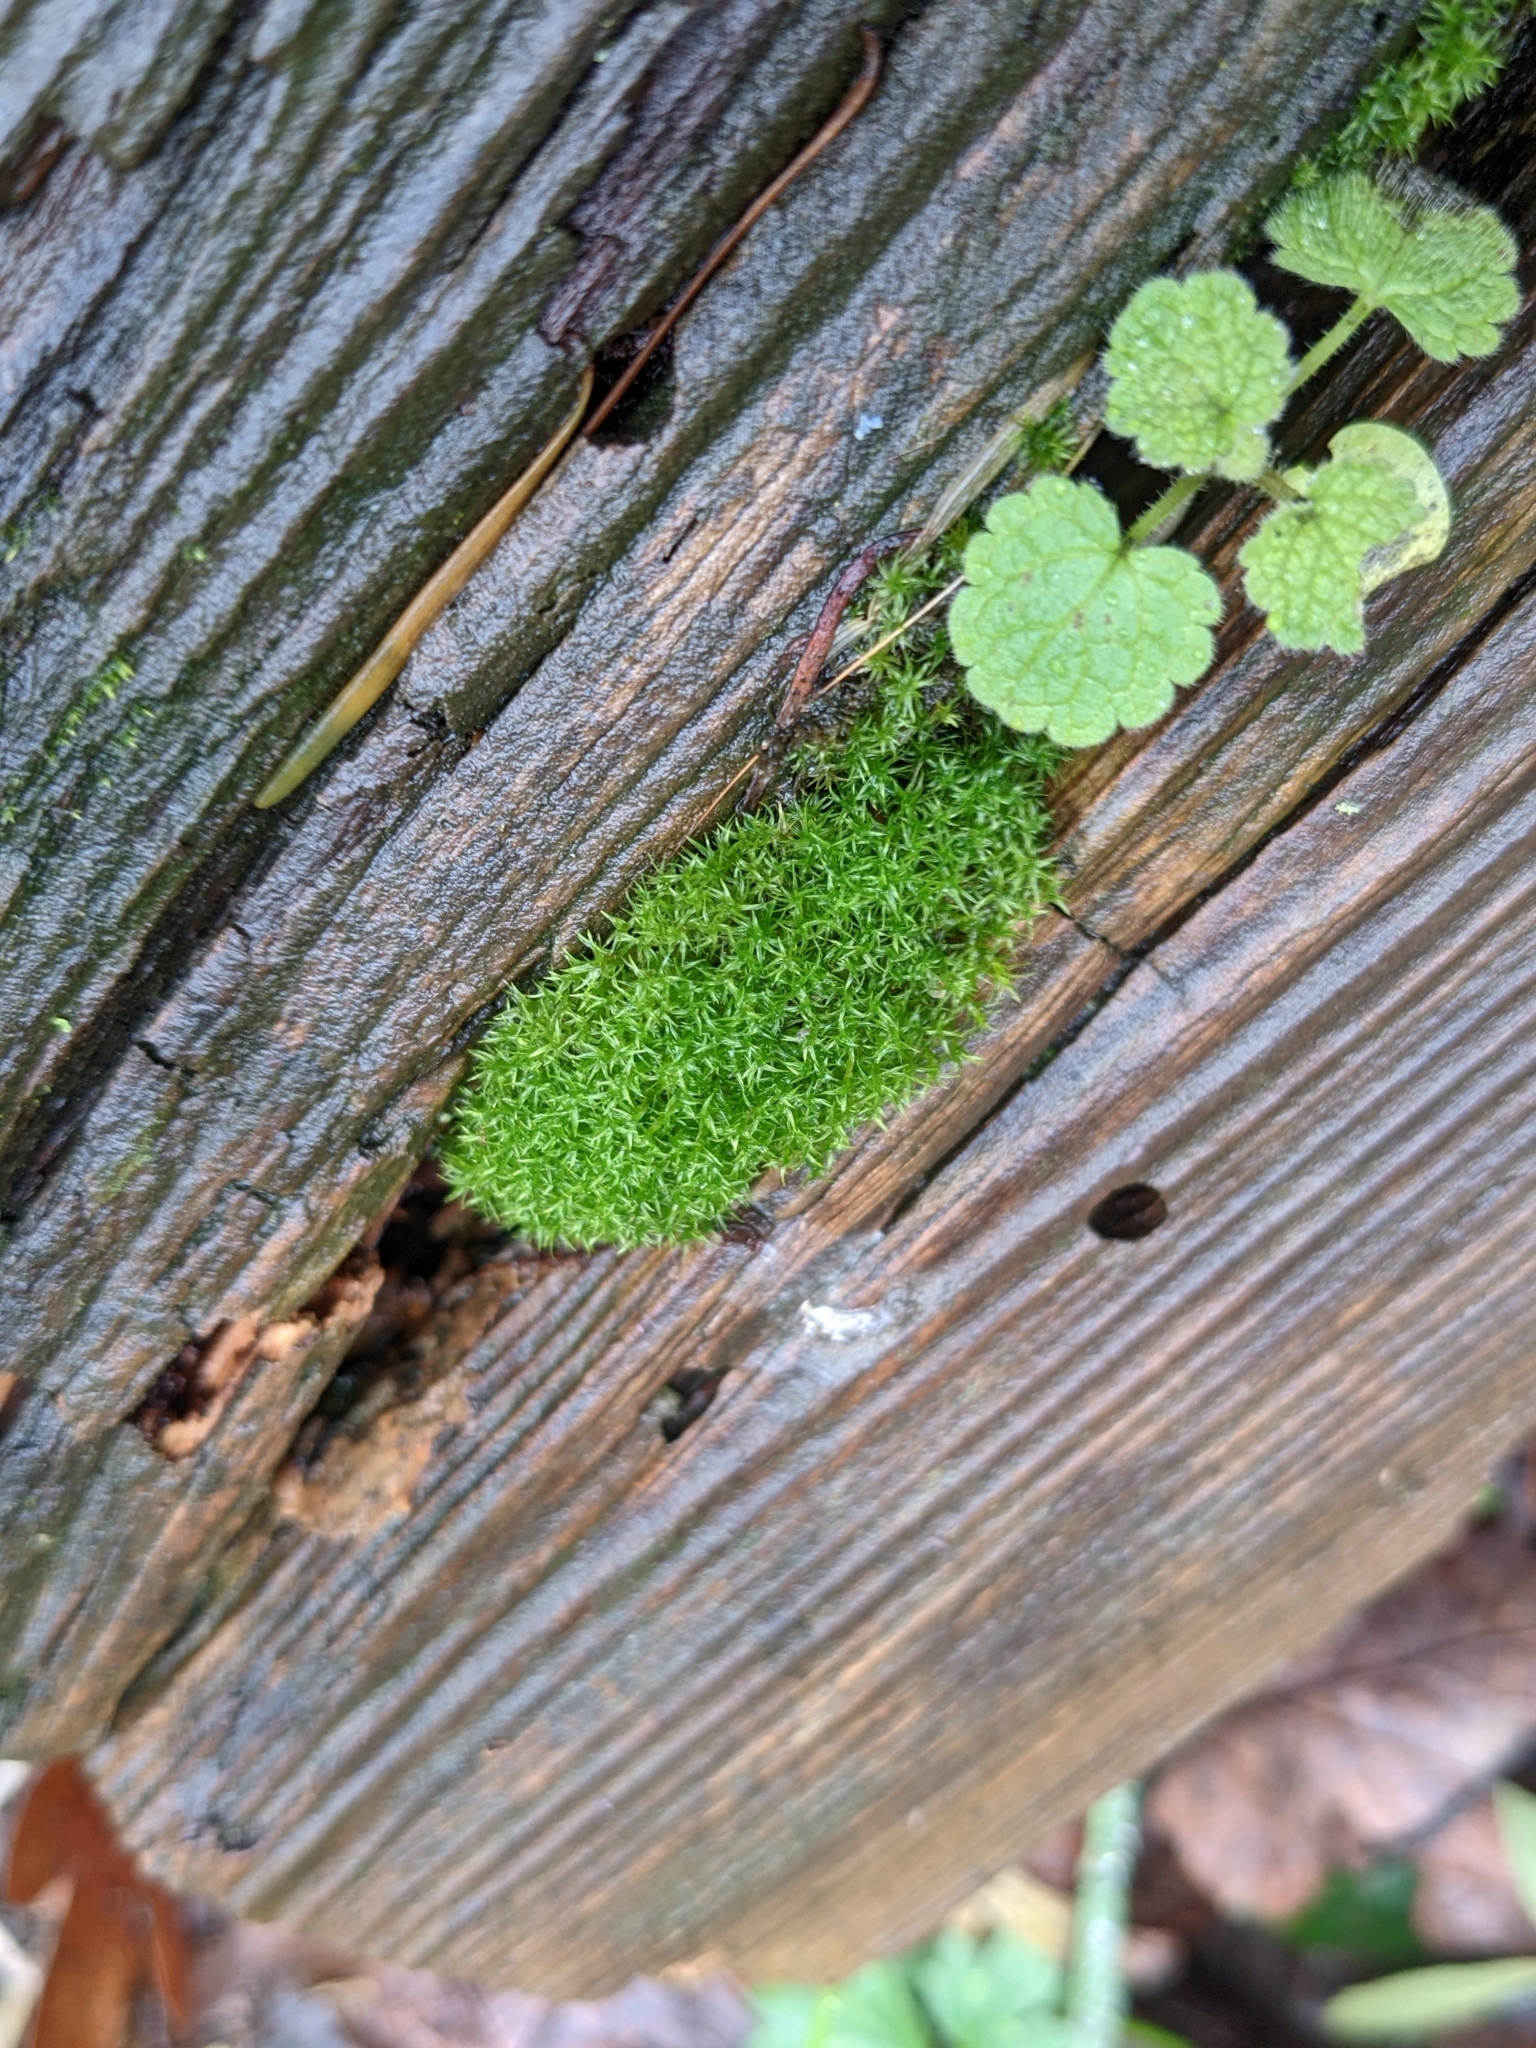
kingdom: Plantae
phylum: Bryophyta
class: Bryopsida
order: Dicranales
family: Rhabdoweisiaceae
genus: Dicranoweisia
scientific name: Dicranoweisia cirrata
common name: Common pincushion
